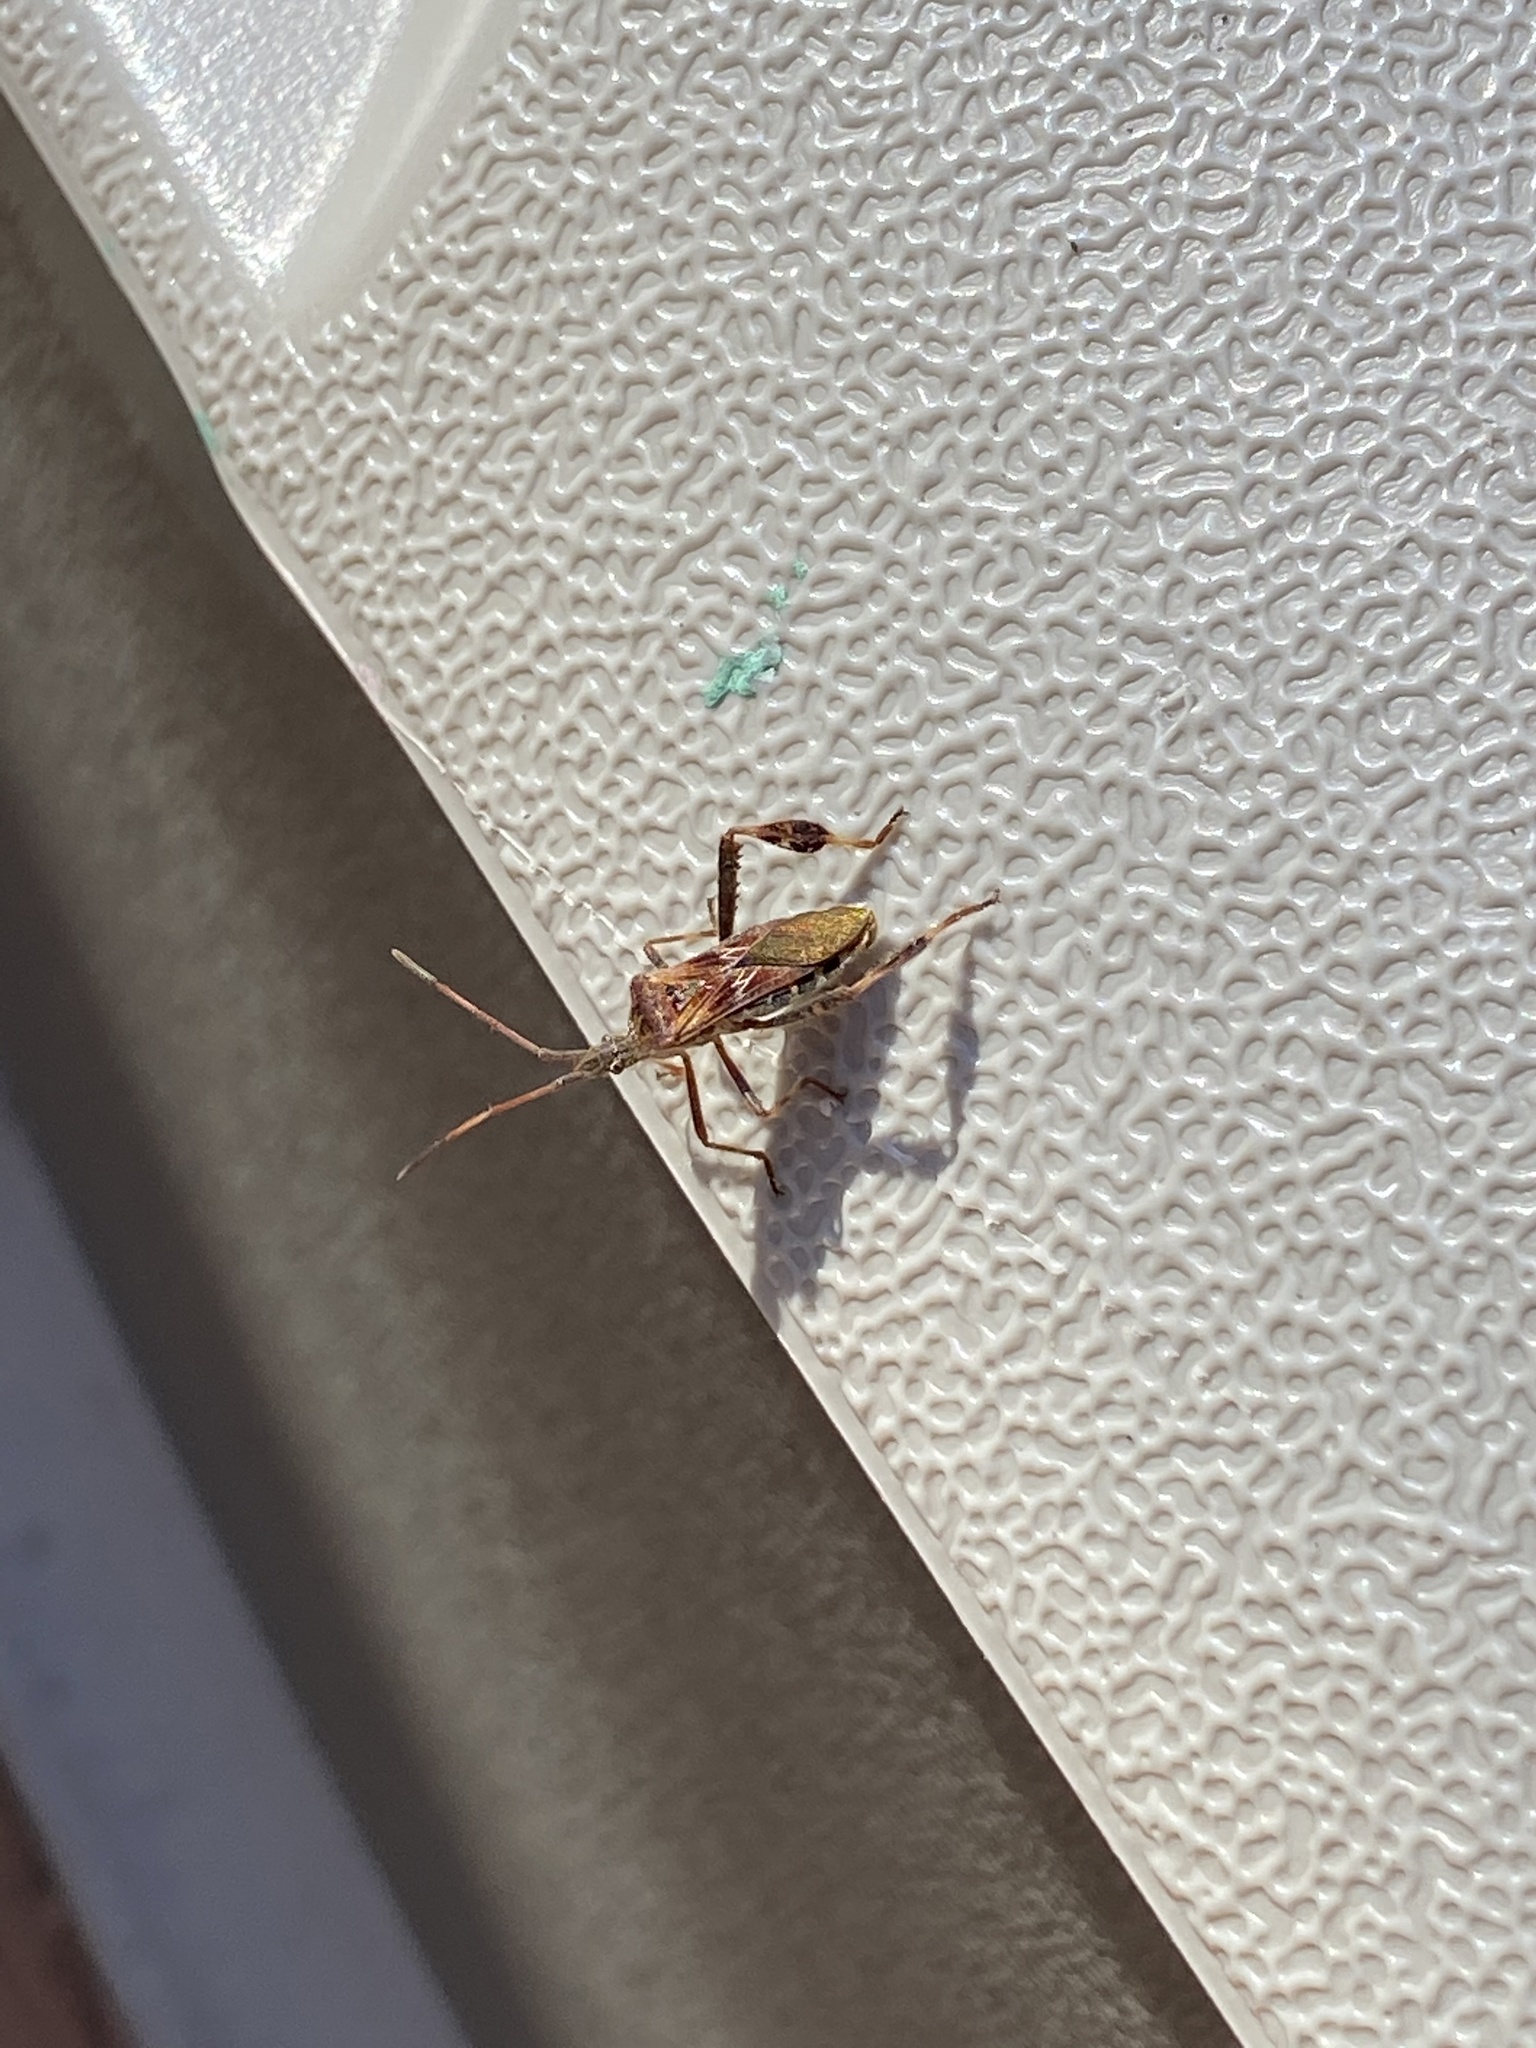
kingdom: Animalia
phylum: Arthropoda
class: Insecta
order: Hemiptera
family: Coreidae
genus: Leptoglossus
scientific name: Leptoglossus occidentalis
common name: Western conifer-seed bug
